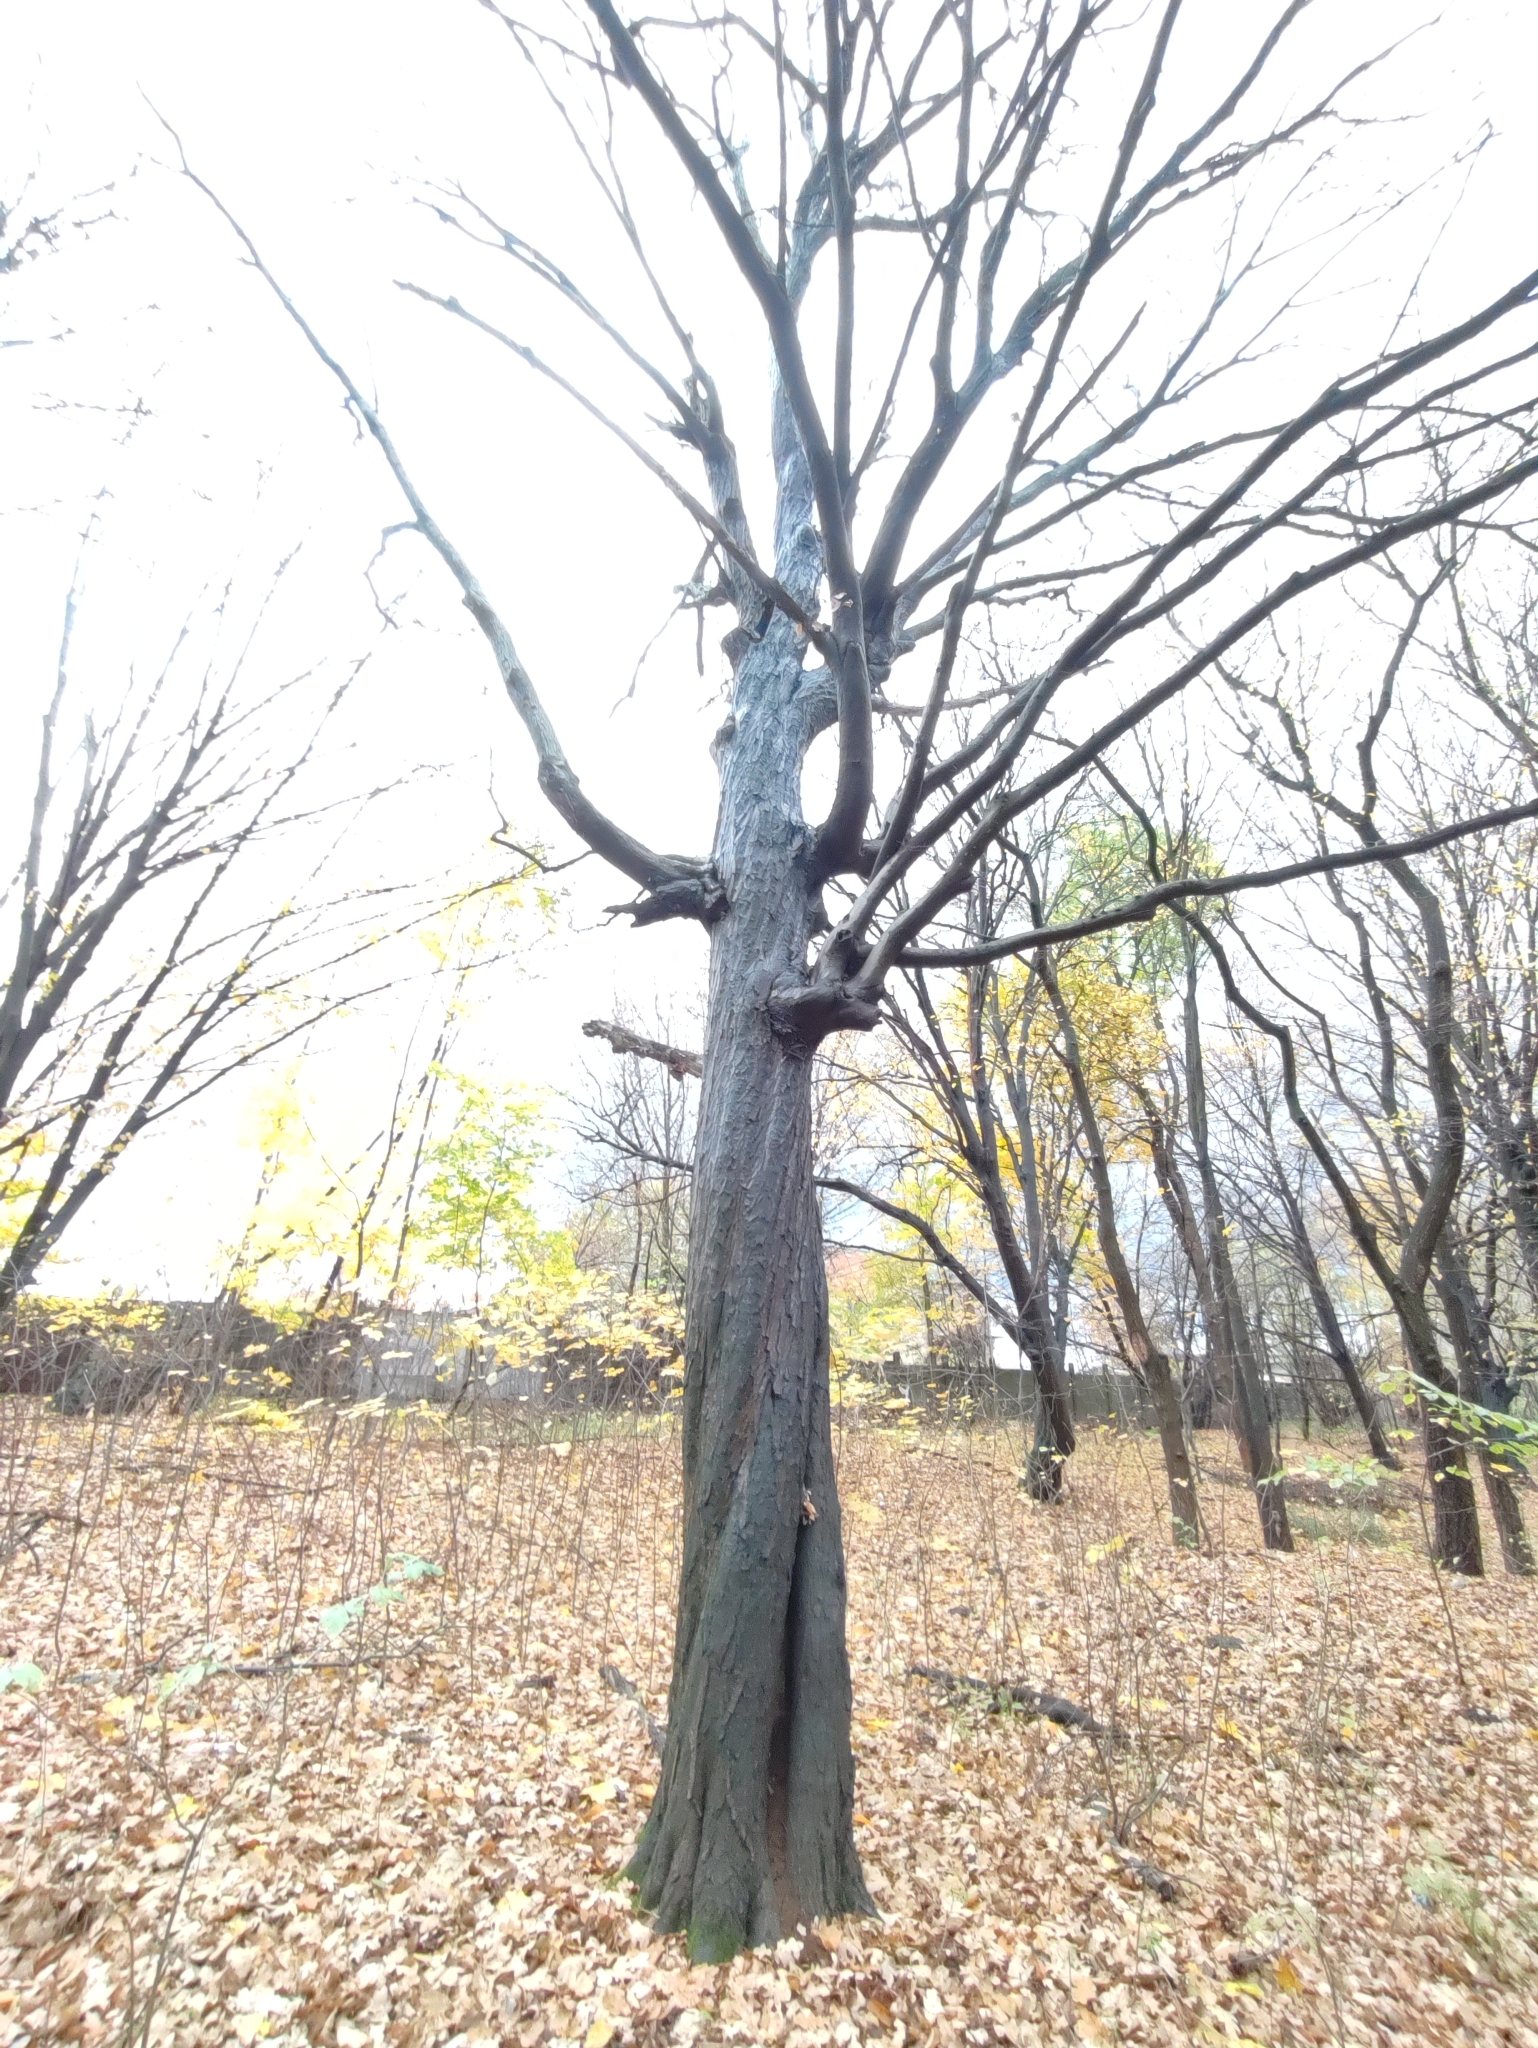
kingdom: Plantae
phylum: Tracheophyta
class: Magnoliopsida
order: Fagales
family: Betulaceae
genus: Carpinus
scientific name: Carpinus betulus
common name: Hornbeam
